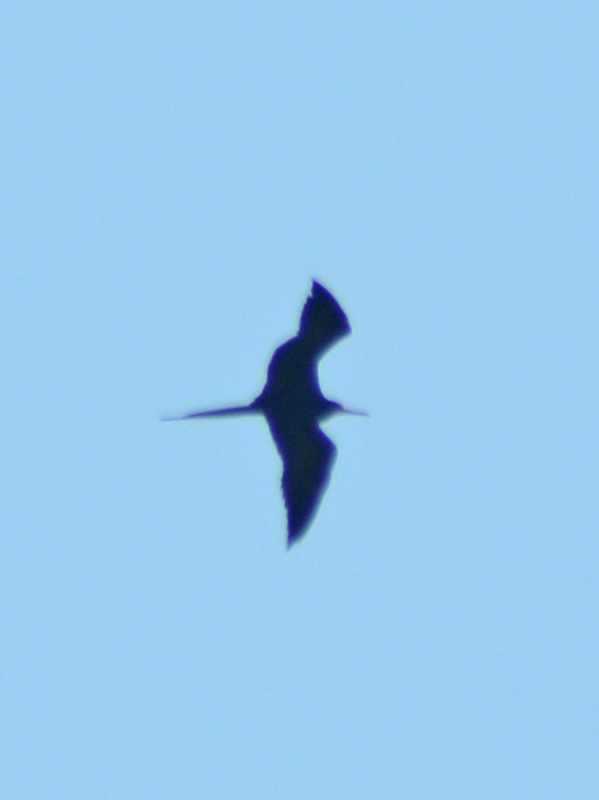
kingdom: Animalia
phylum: Chordata
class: Aves
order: Suliformes
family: Fregatidae
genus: Fregata
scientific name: Fregata magnificens
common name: Magnificent frigatebird
